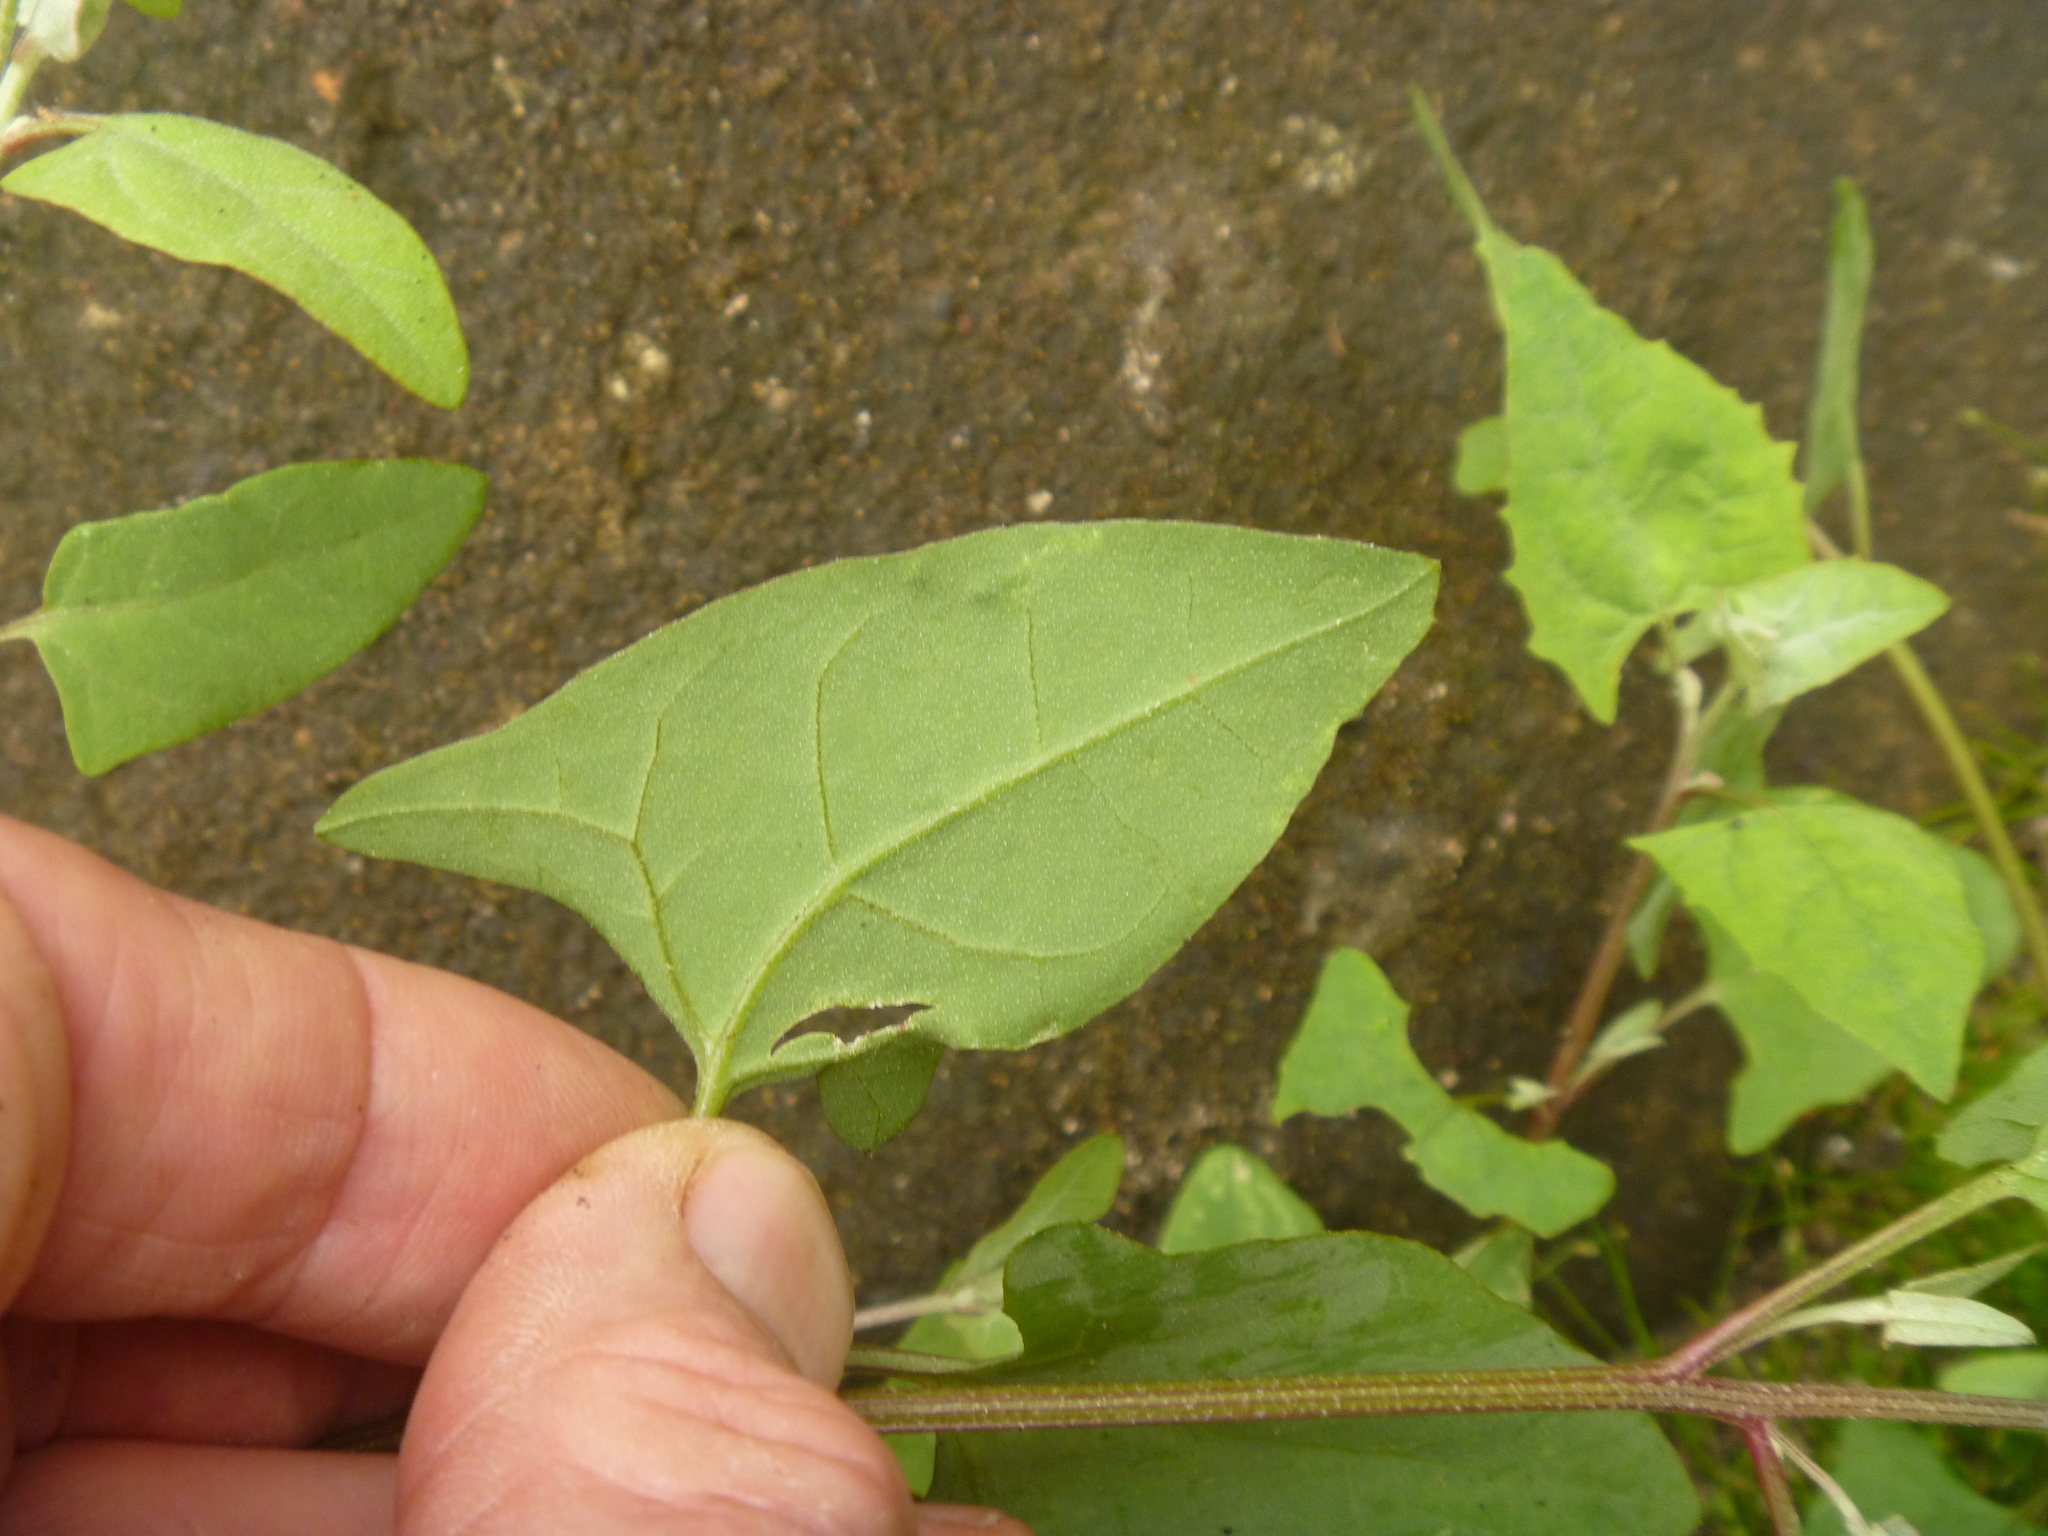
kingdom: Plantae
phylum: Tracheophyta
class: Magnoliopsida
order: Caryophyllales
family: Amaranthaceae
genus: Atriplex
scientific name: Atriplex prostrata
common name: Spear-leaved orache
